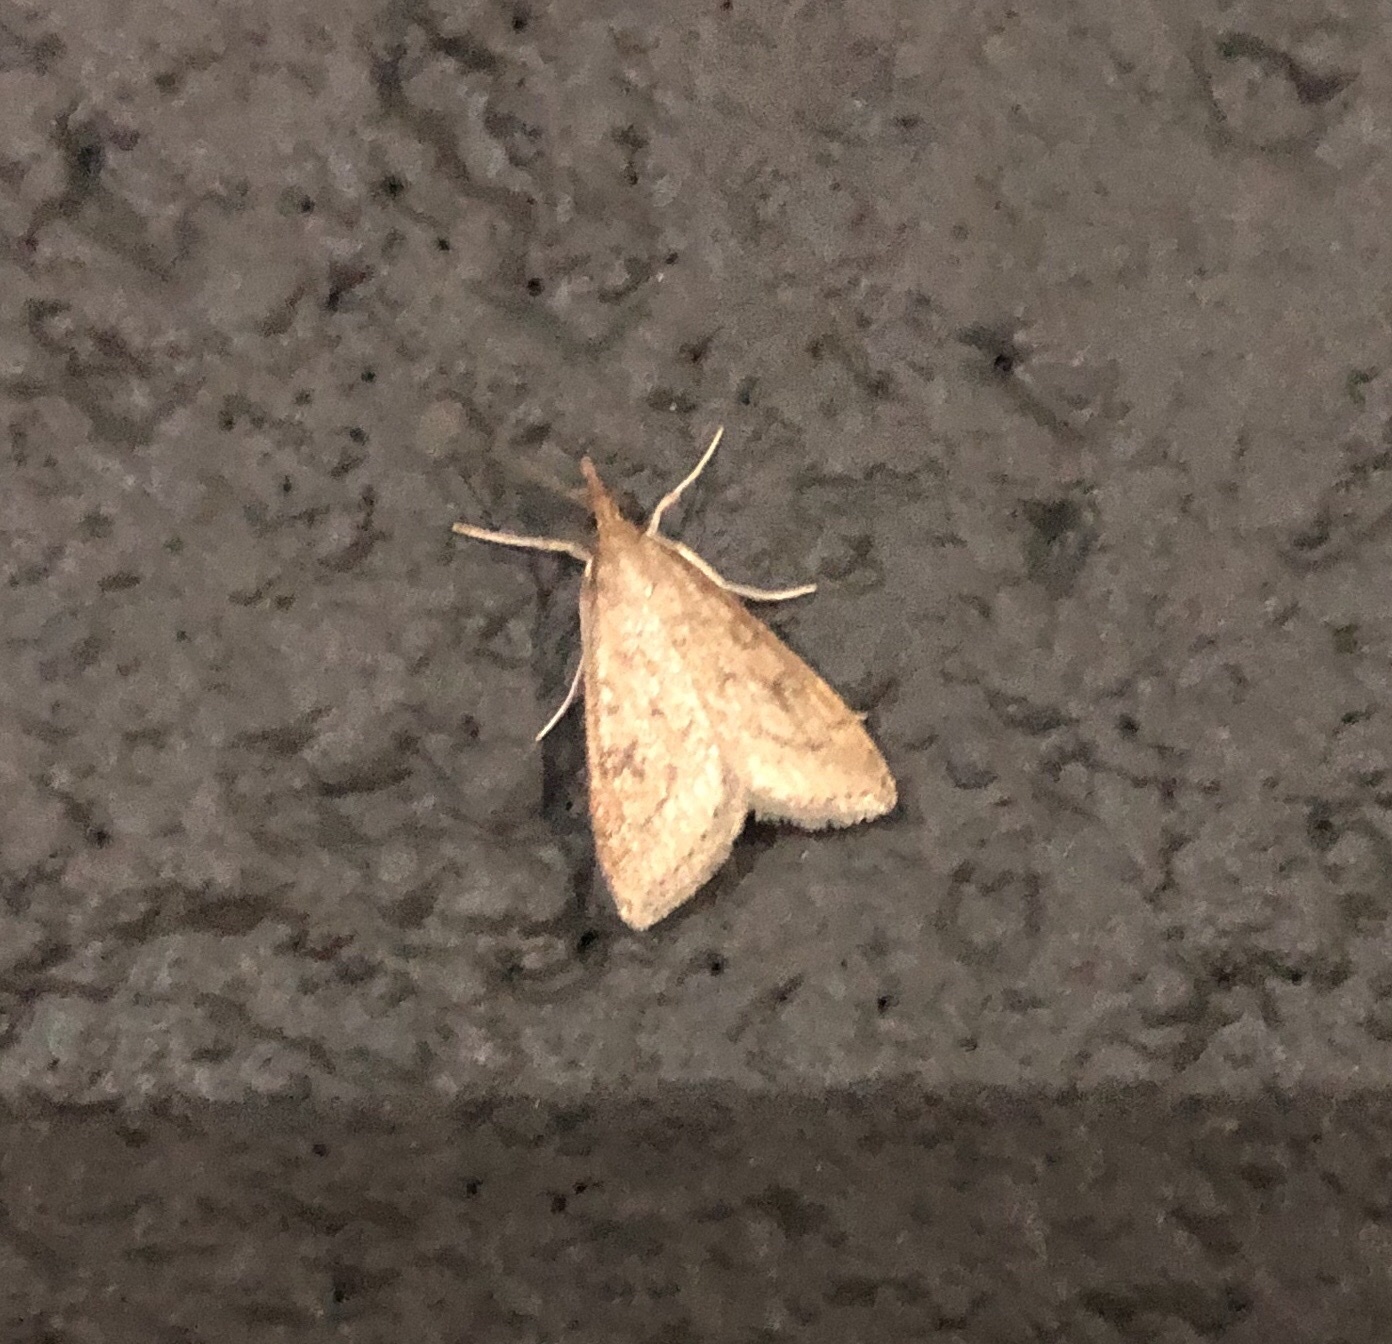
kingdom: Animalia
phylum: Arthropoda
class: Insecta
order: Lepidoptera
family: Crambidae
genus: Udea
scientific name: Udea rubigalis
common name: Celery leaftier moth
